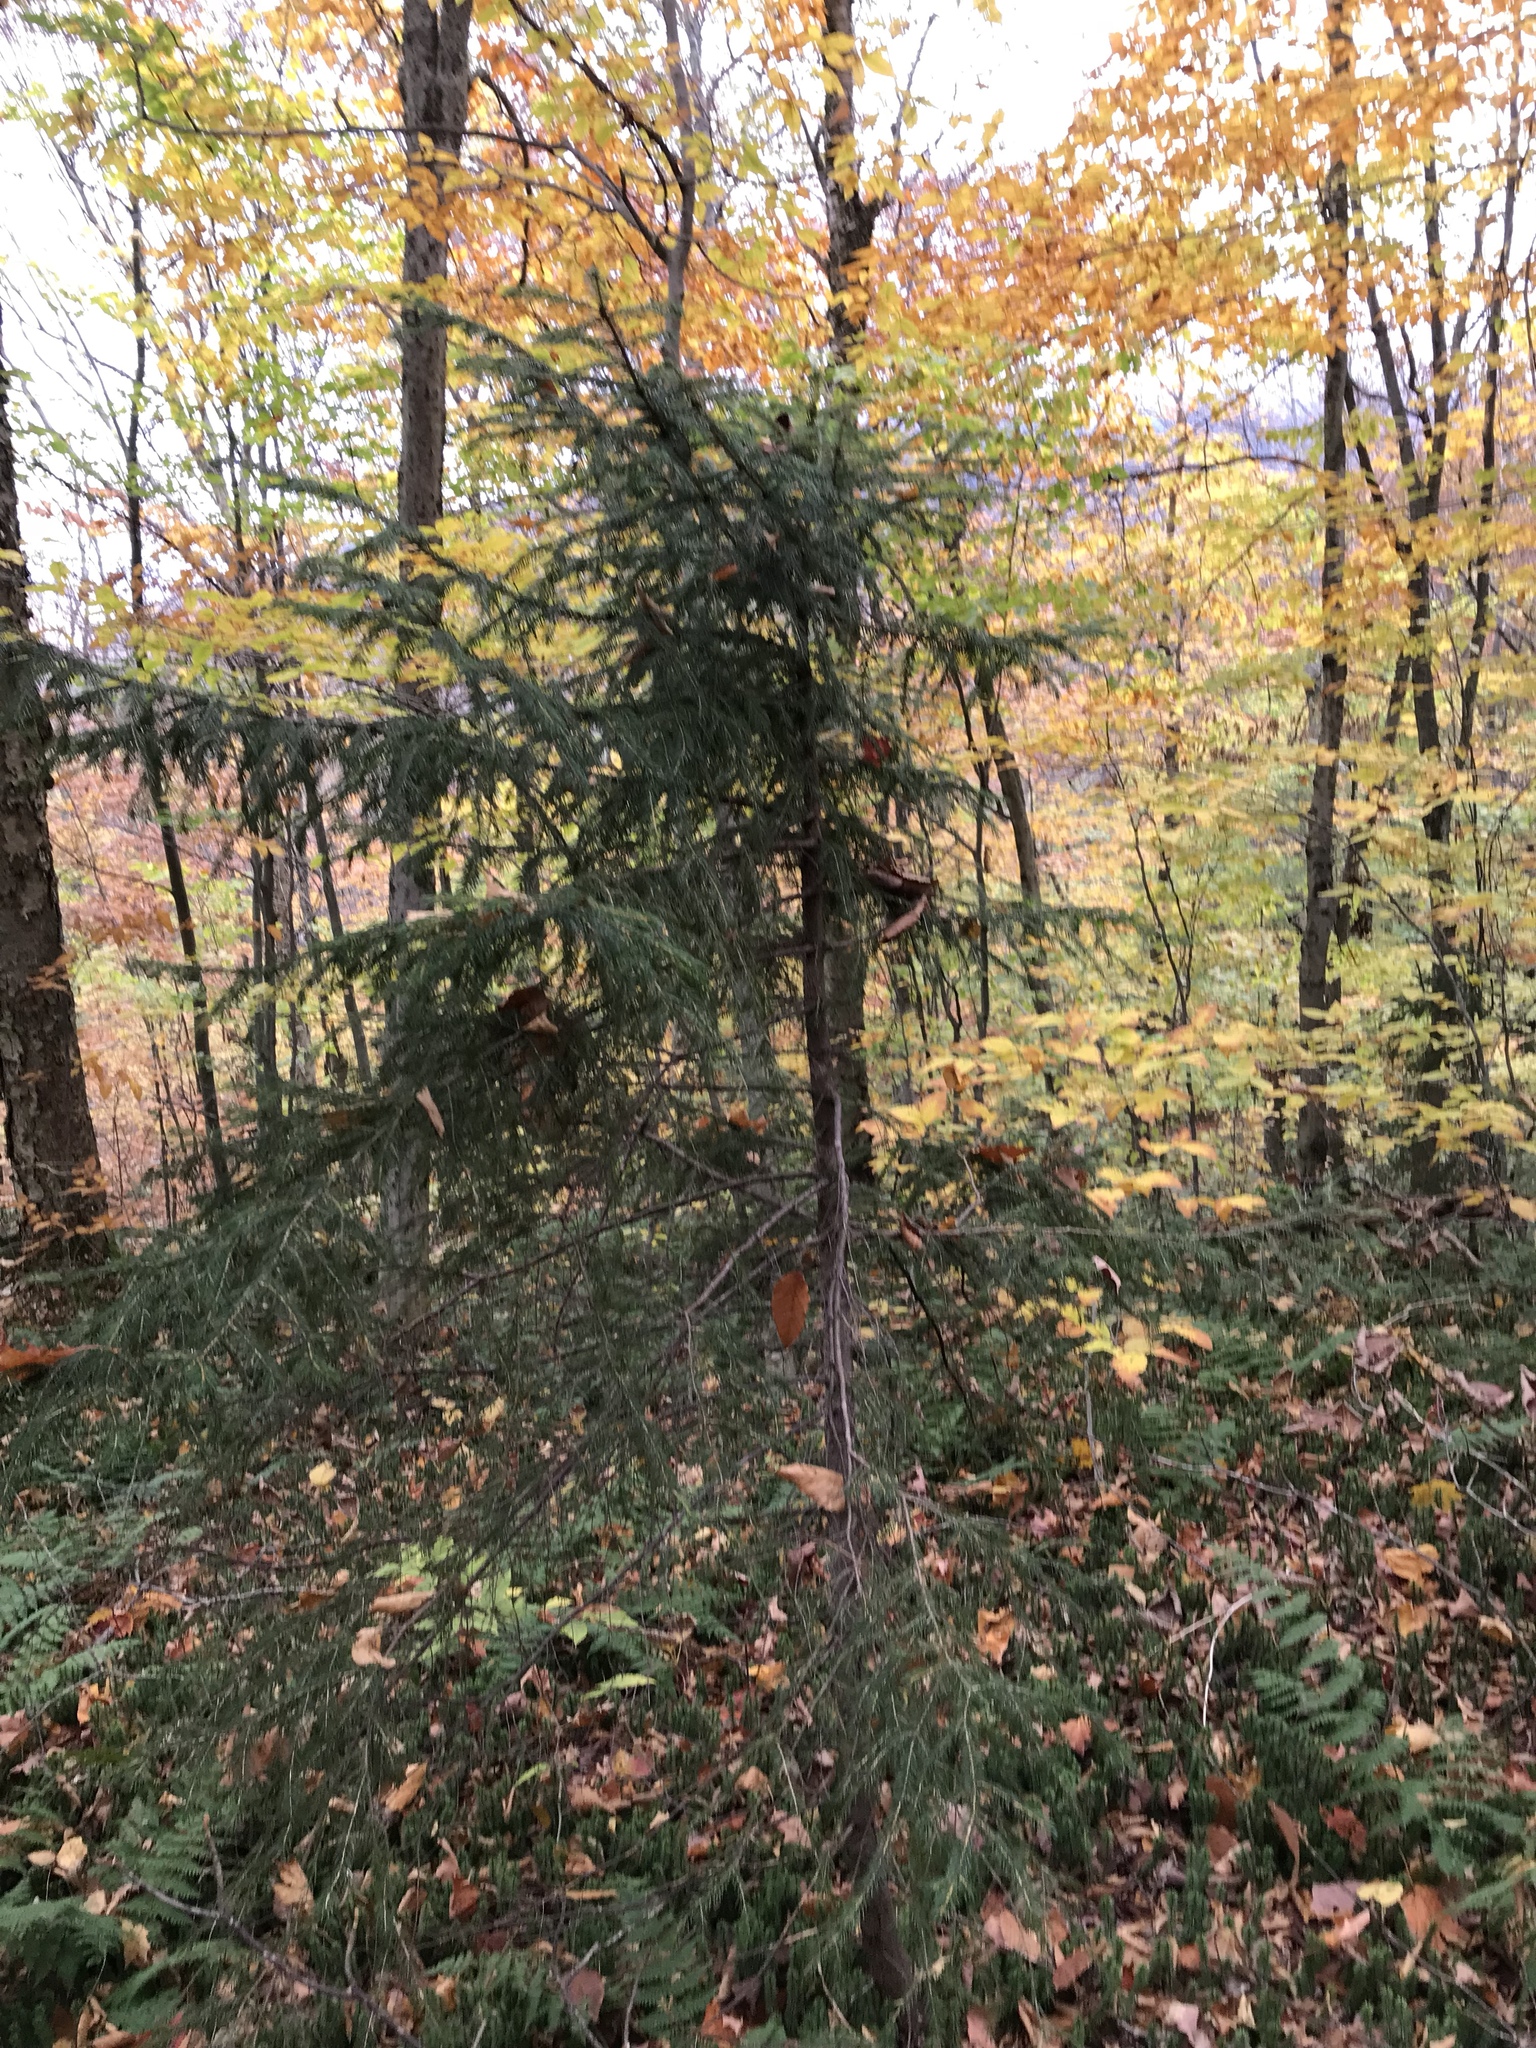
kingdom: Plantae
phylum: Tracheophyta
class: Pinopsida
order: Pinales
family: Pinaceae
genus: Picea
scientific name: Picea rubens
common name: Red spruce
